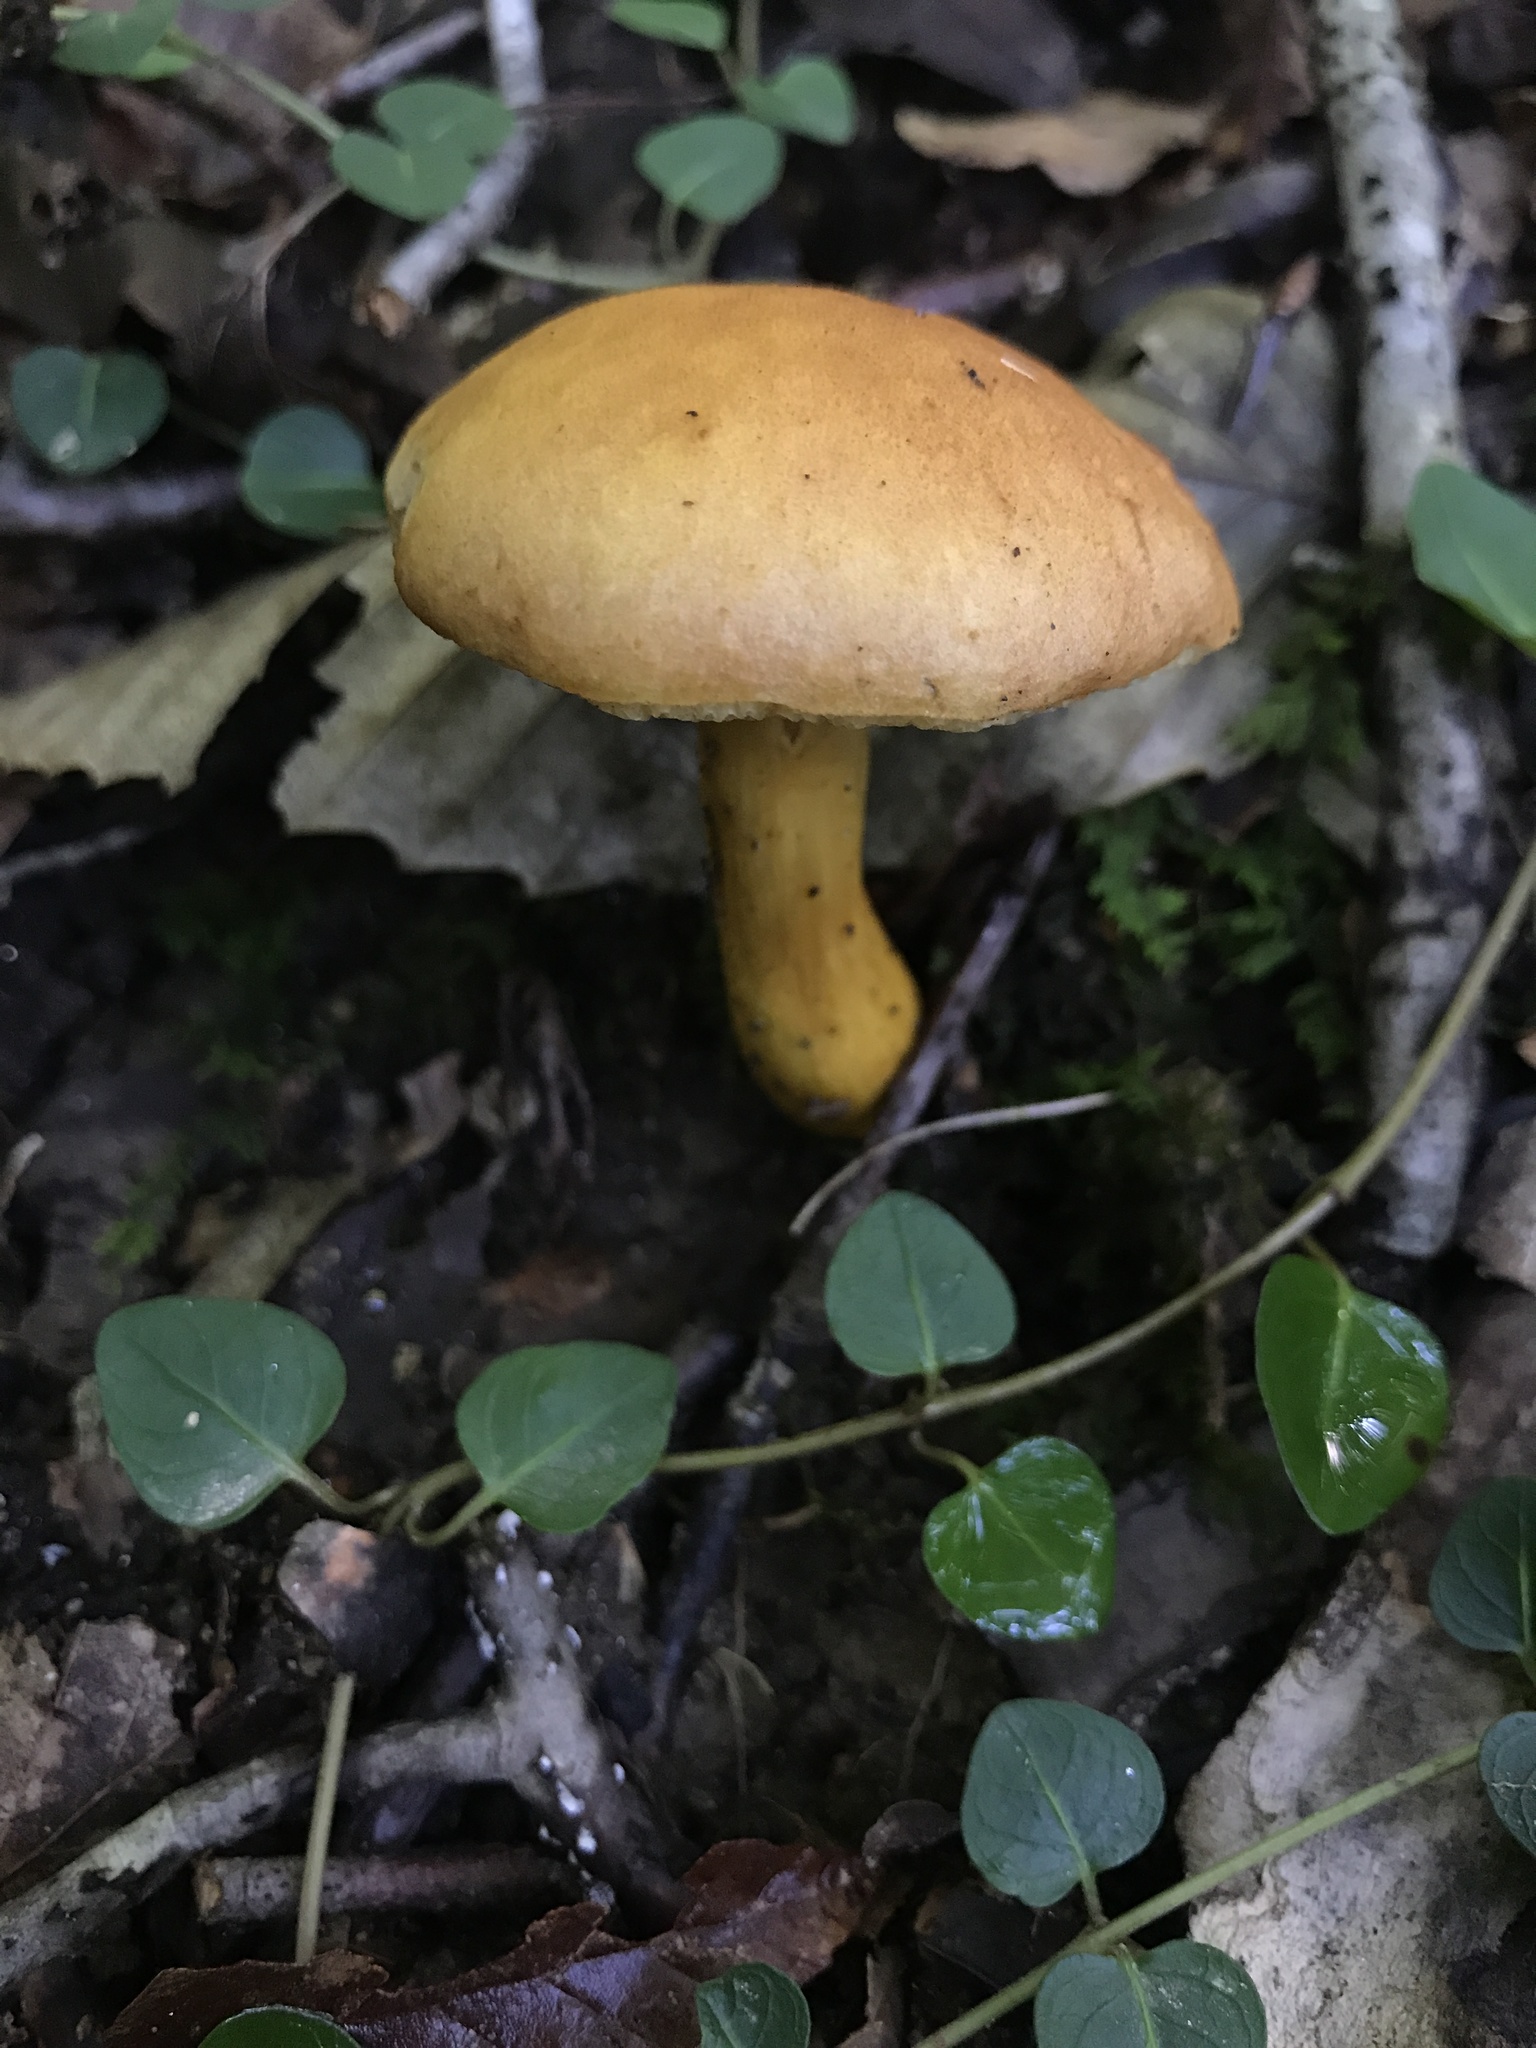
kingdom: Fungi
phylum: Basidiomycota
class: Agaricomycetes
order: Boletales
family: Boletaceae
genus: Aureoboletus
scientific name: Aureoboletus roxanae
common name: Roxane's bolete
